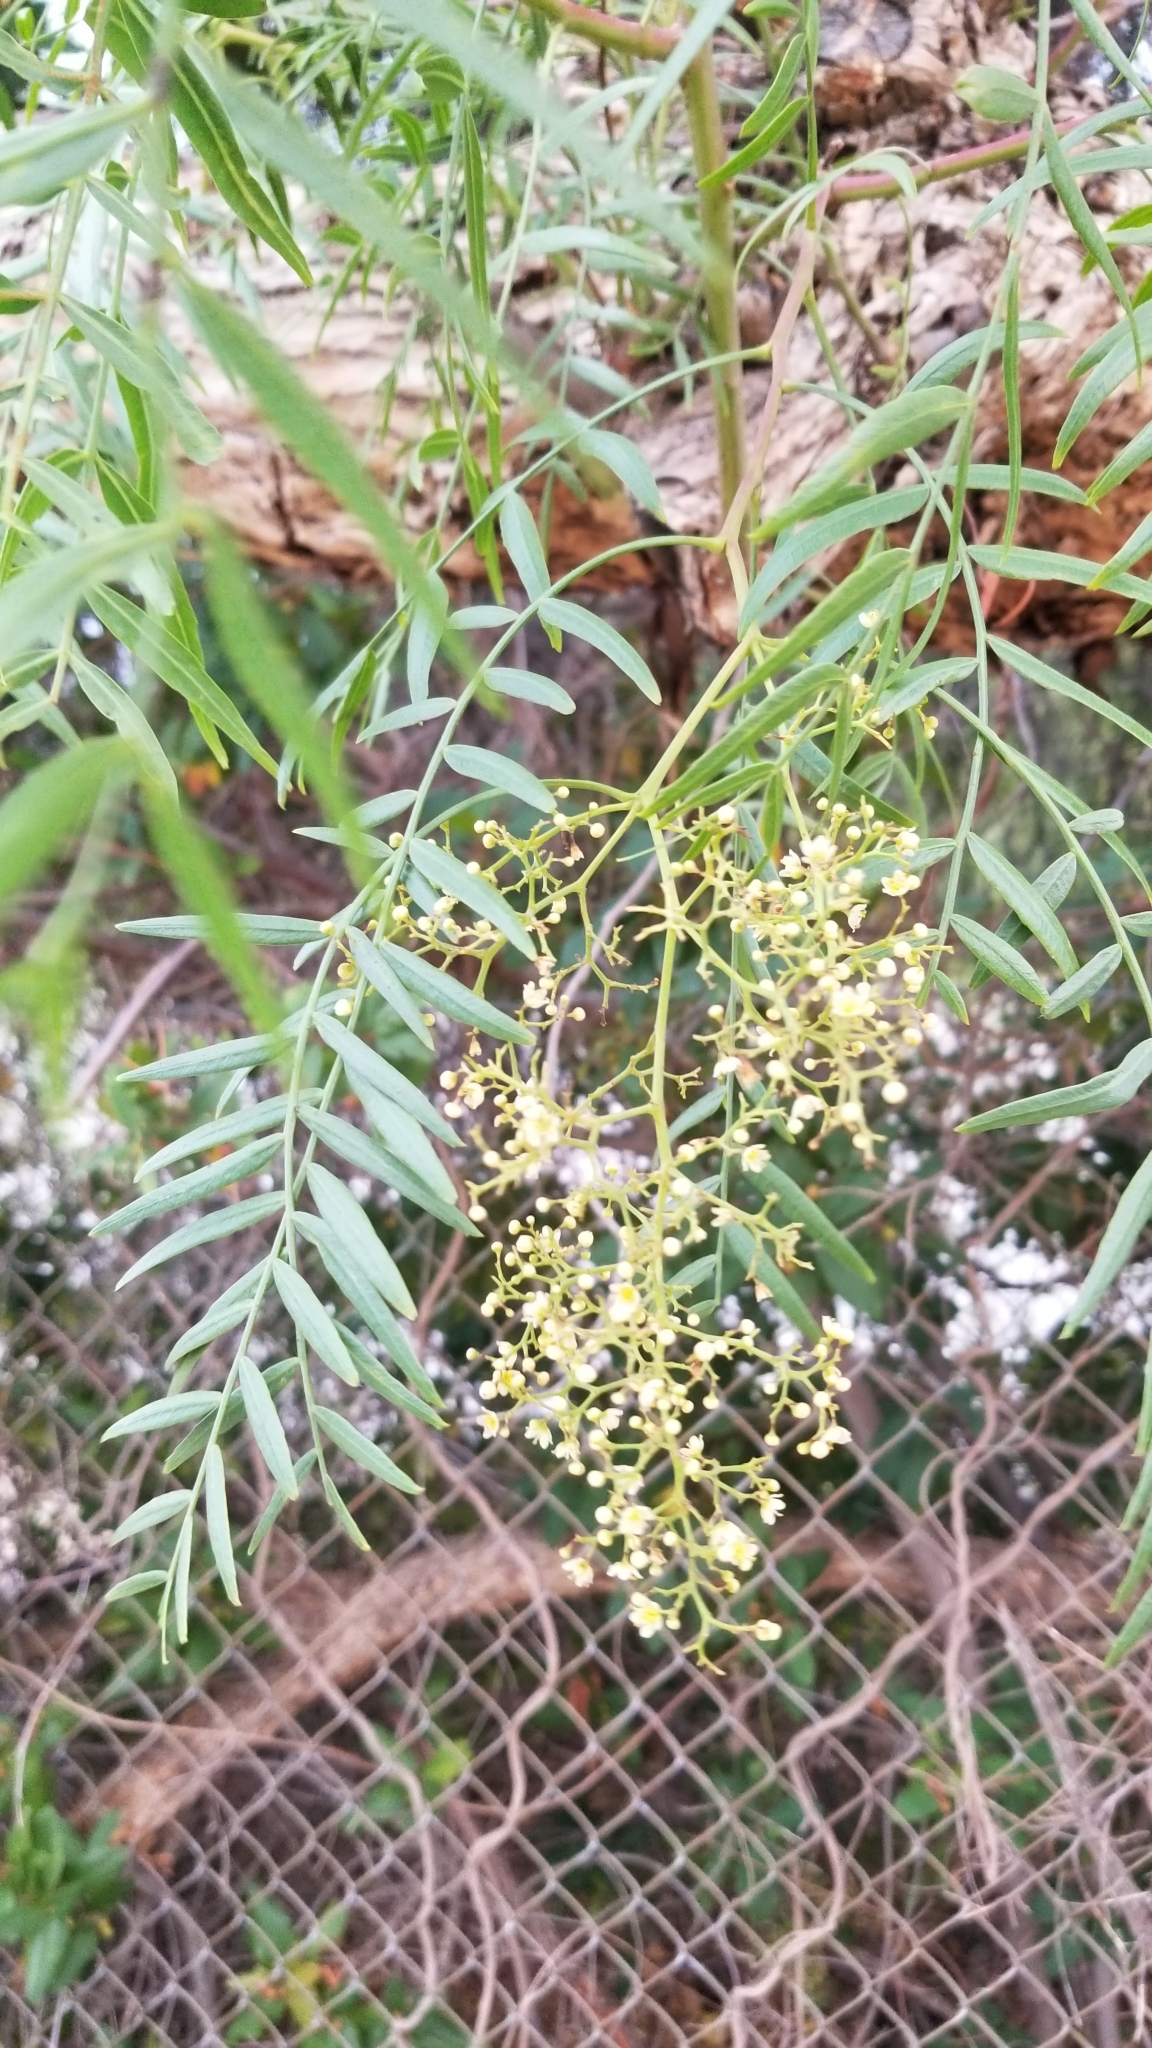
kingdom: Plantae
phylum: Tracheophyta
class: Magnoliopsida
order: Sapindales
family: Anacardiaceae
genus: Schinus
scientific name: Schinus molle
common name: Peruvian peppertree
